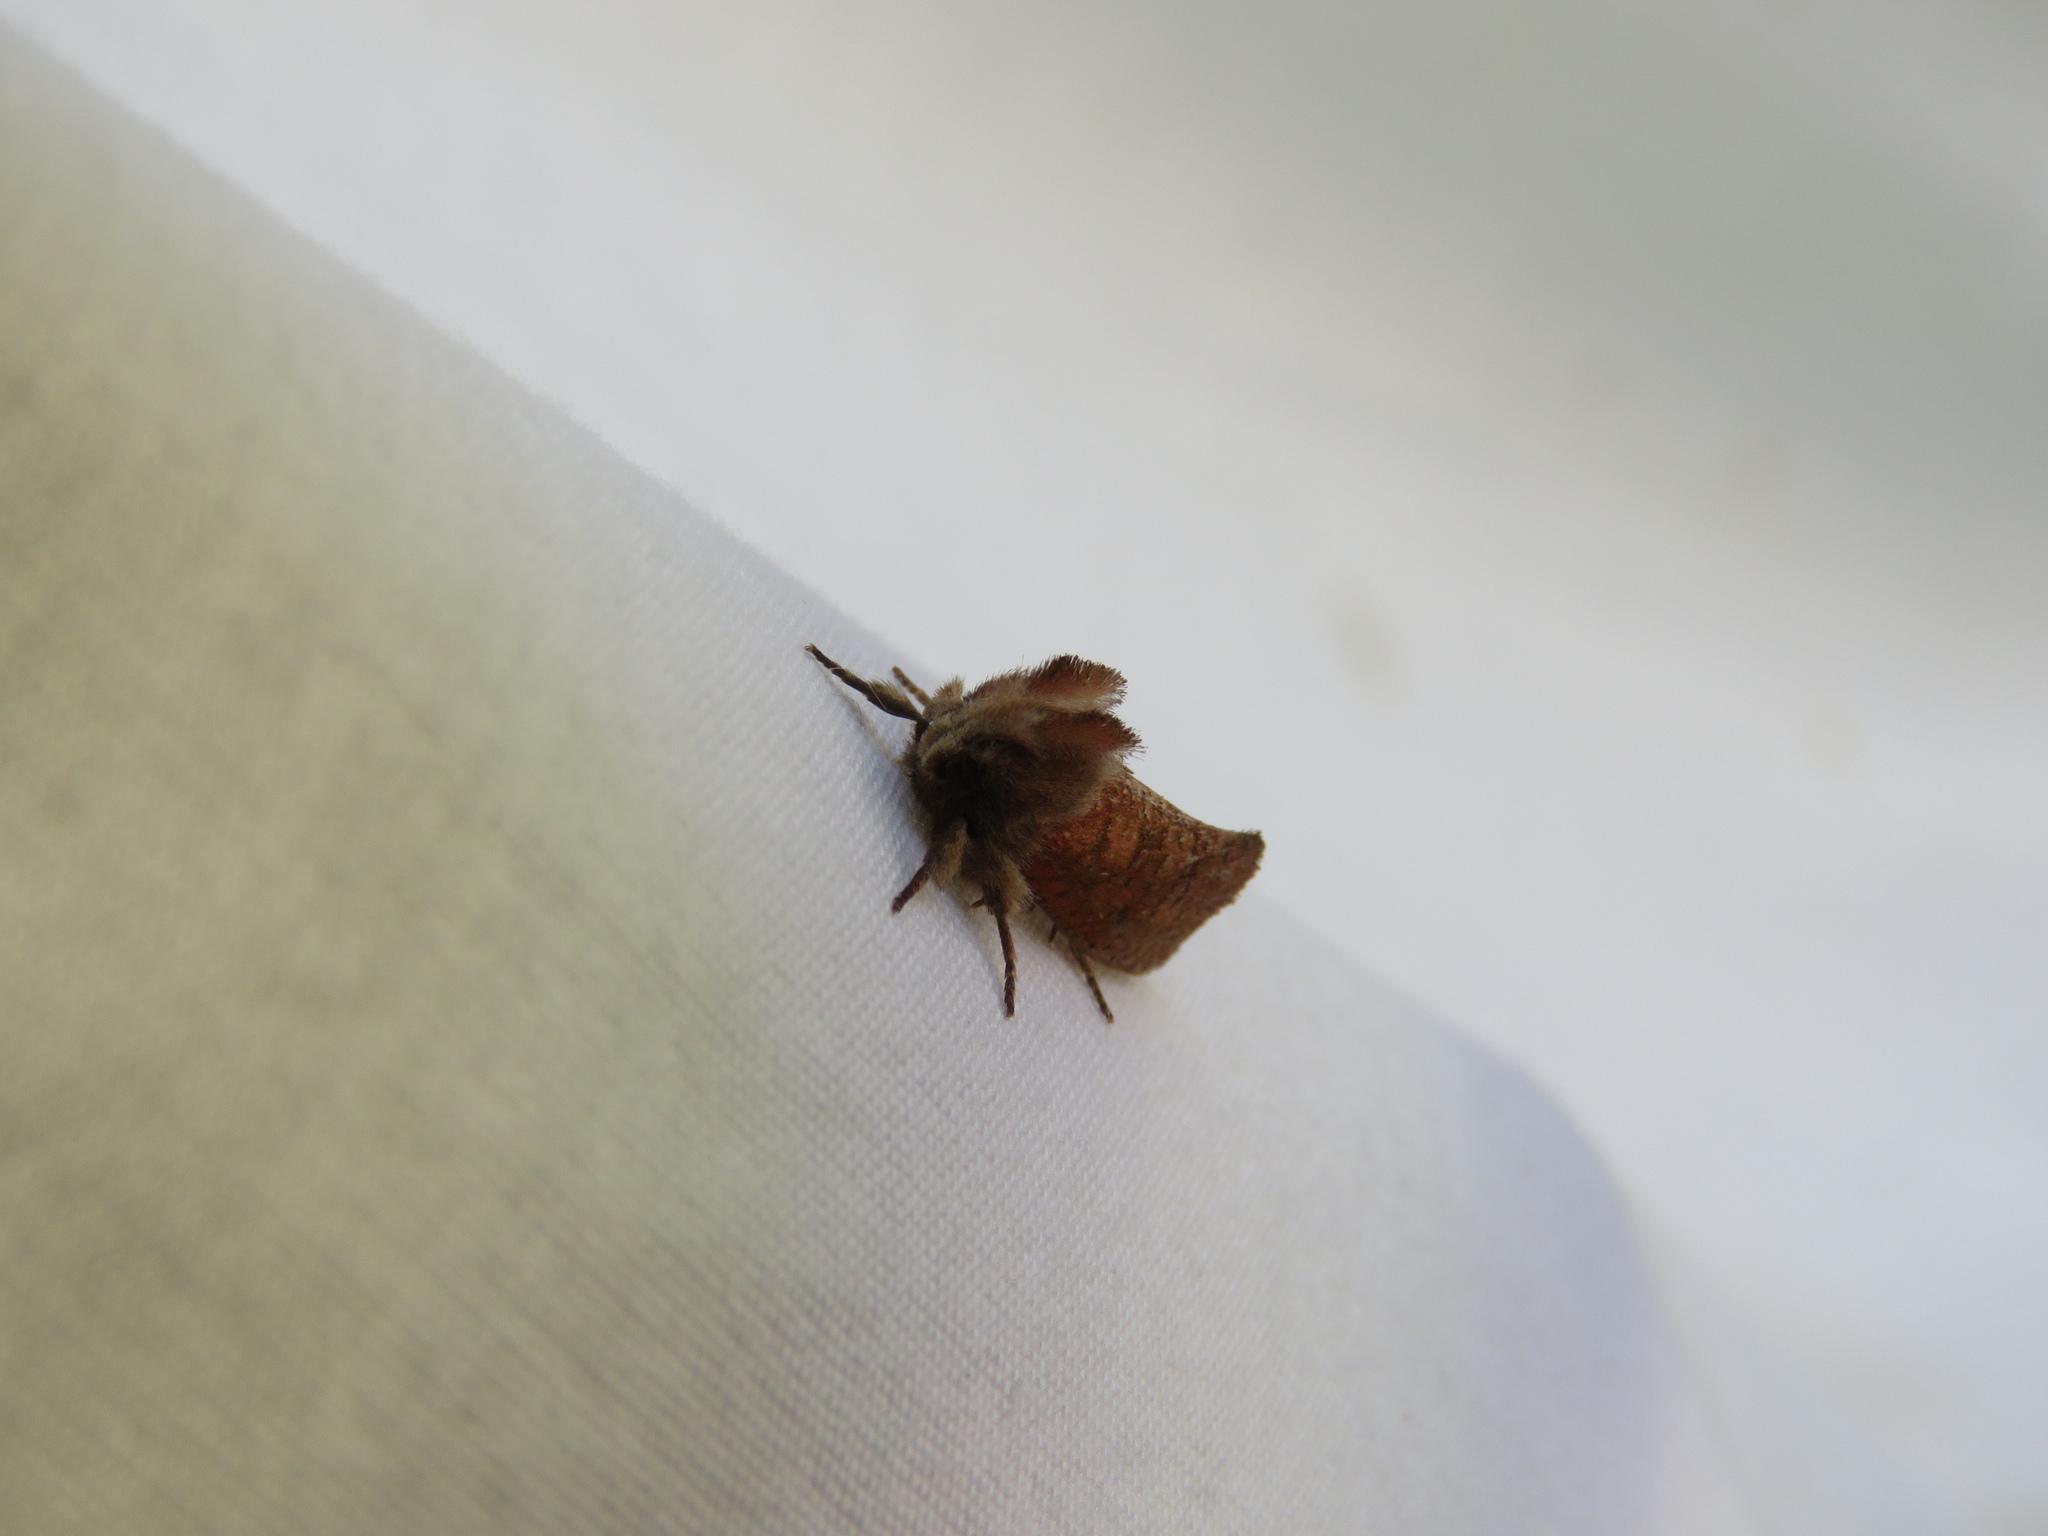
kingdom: Animalia
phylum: Arthropoda
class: Insecta
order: Lepidoptera
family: Tineidae
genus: Acrolophus
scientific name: Acrolophus plumifrontella
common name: Eastern grass tubeworm moth
